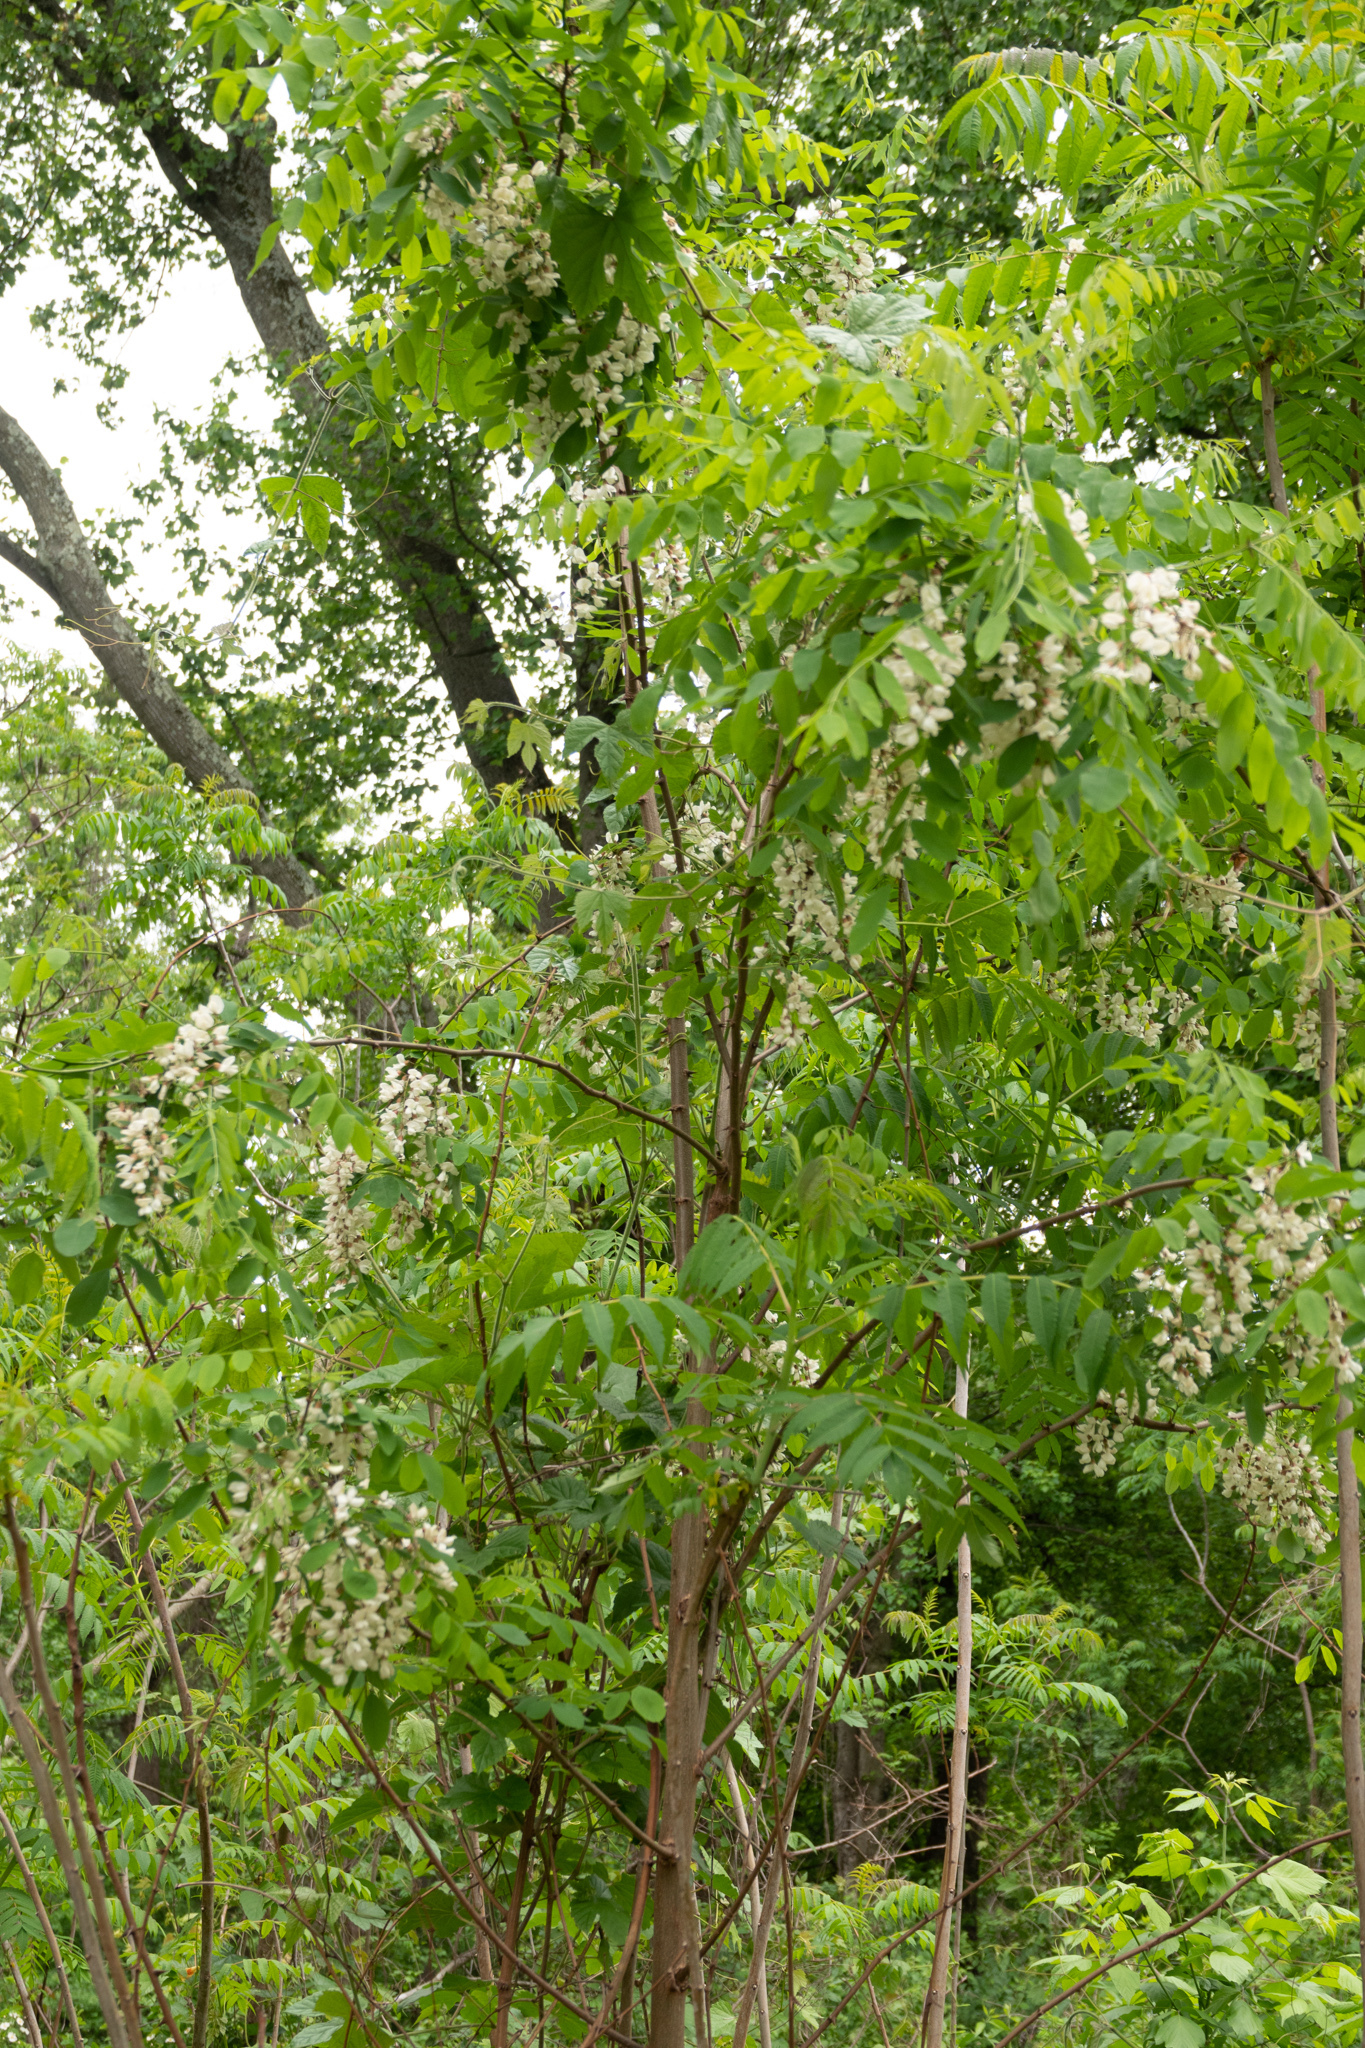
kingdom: Plantae
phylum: Tracheophyta
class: Magnoliopsida
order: Fabales
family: Fabaceae
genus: Robinia
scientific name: Robinia pseudoacacia
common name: Black locust
